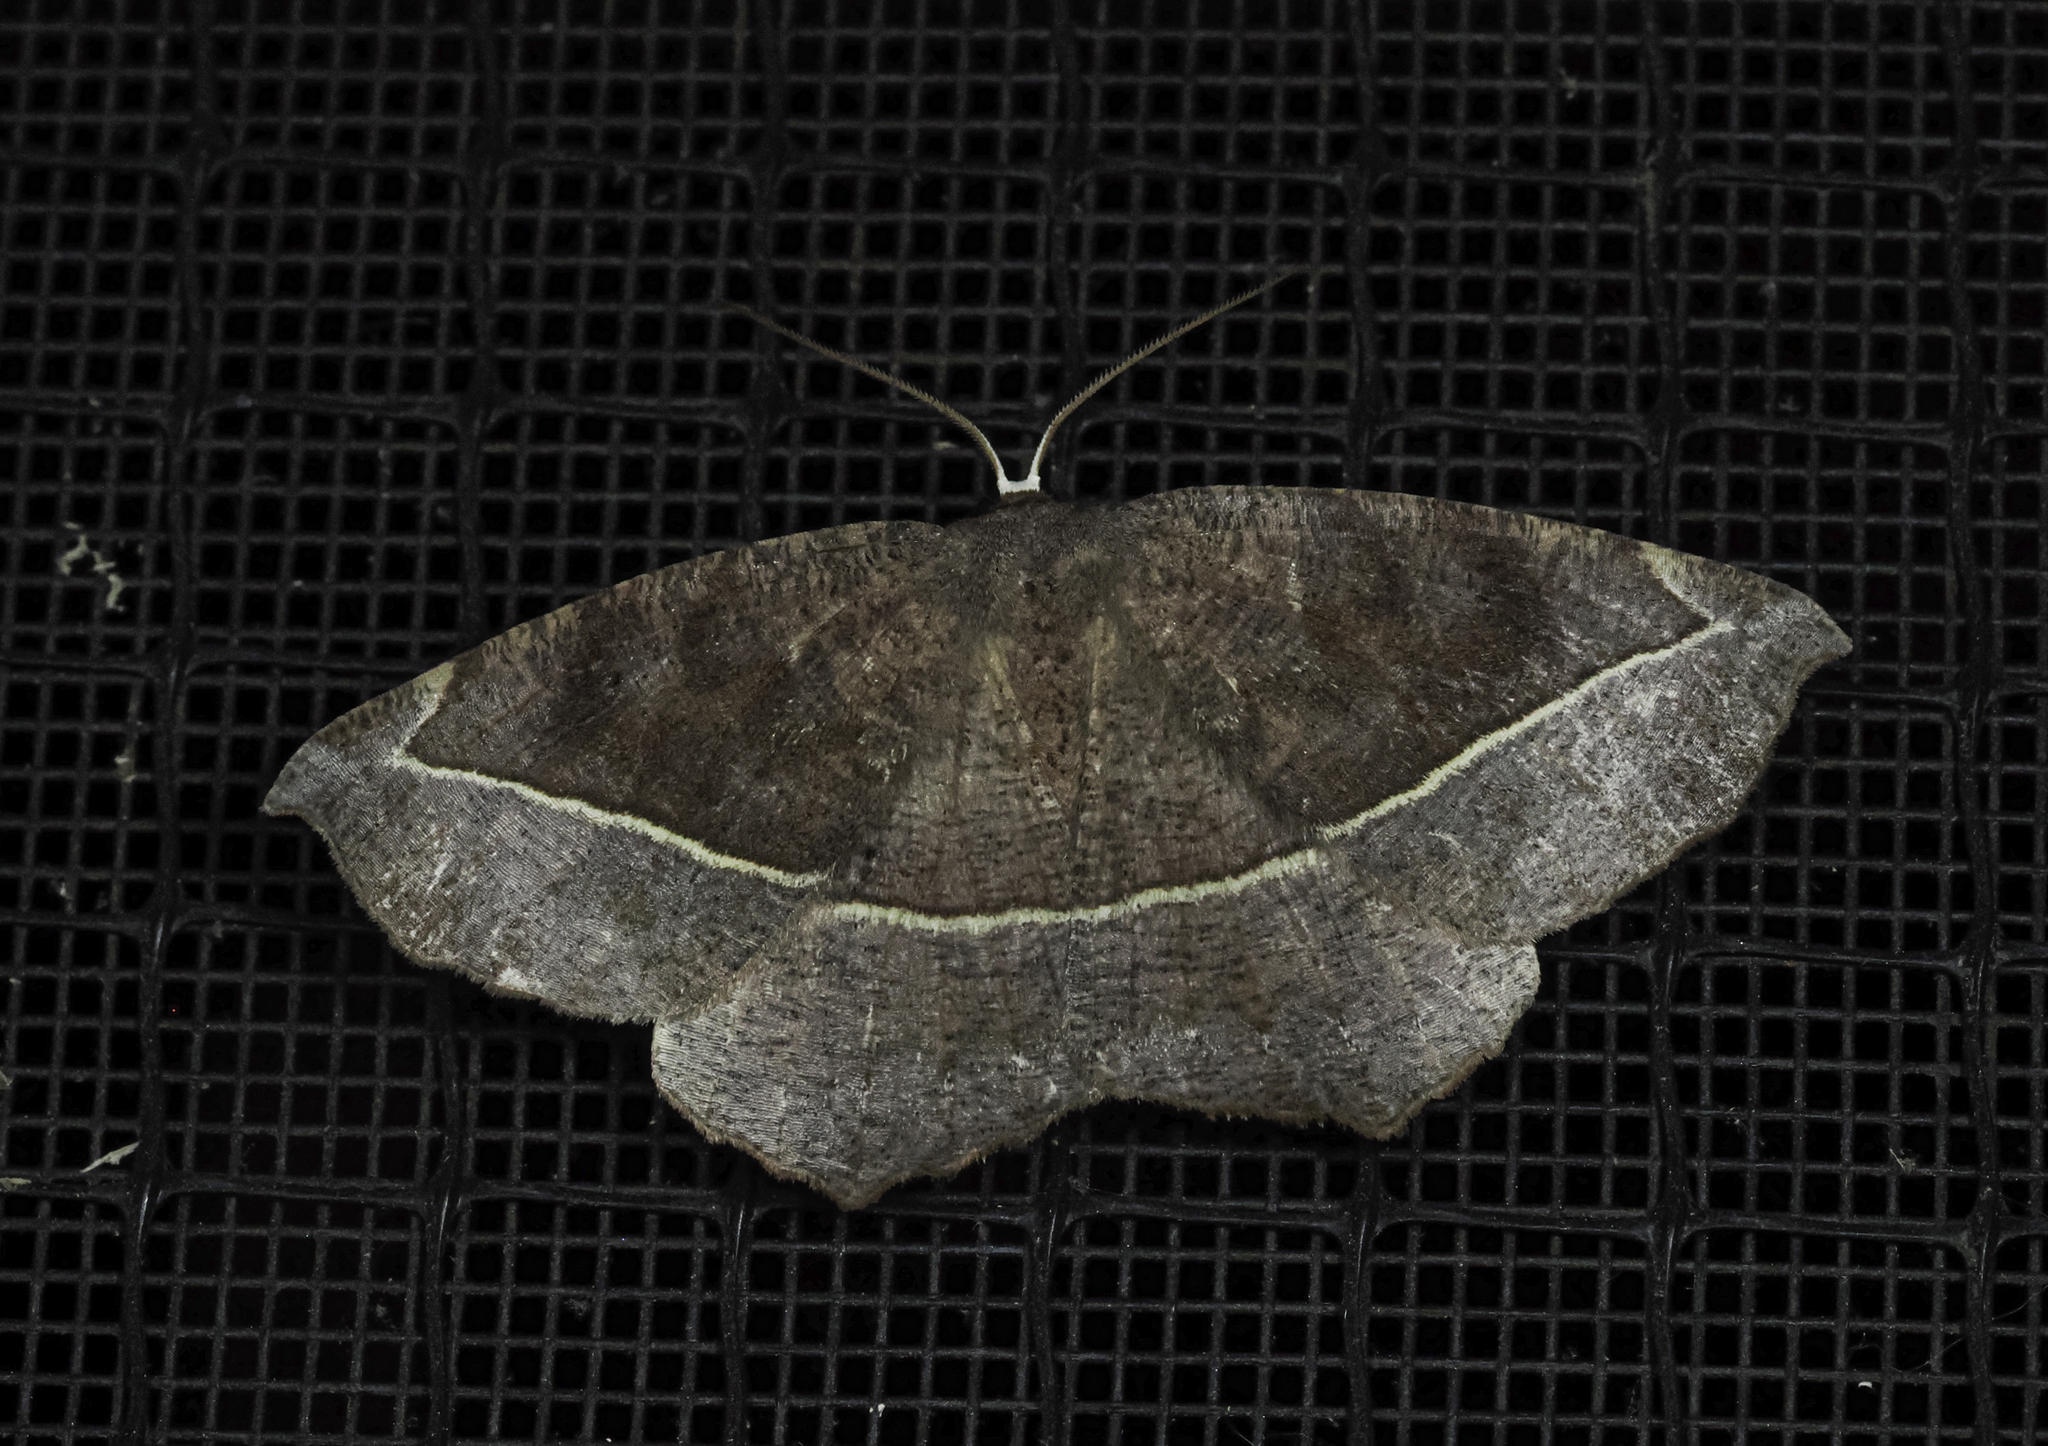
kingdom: Animalia
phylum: Arthropoda
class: Insecta
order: Lepidoptera
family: Geometridae
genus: Eutrapela
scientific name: Eutrapela clemataria
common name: Curved-toothed geometer
